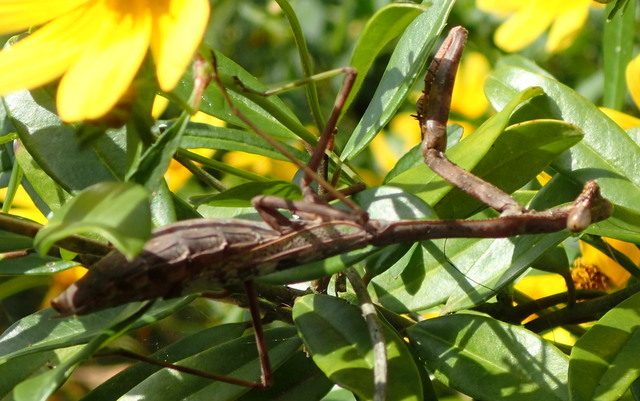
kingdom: Animalia
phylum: Arthropoda
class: Insecta
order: Mantodea
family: Mantidae
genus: Stagmomantis
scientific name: Stagmomantis carolina
